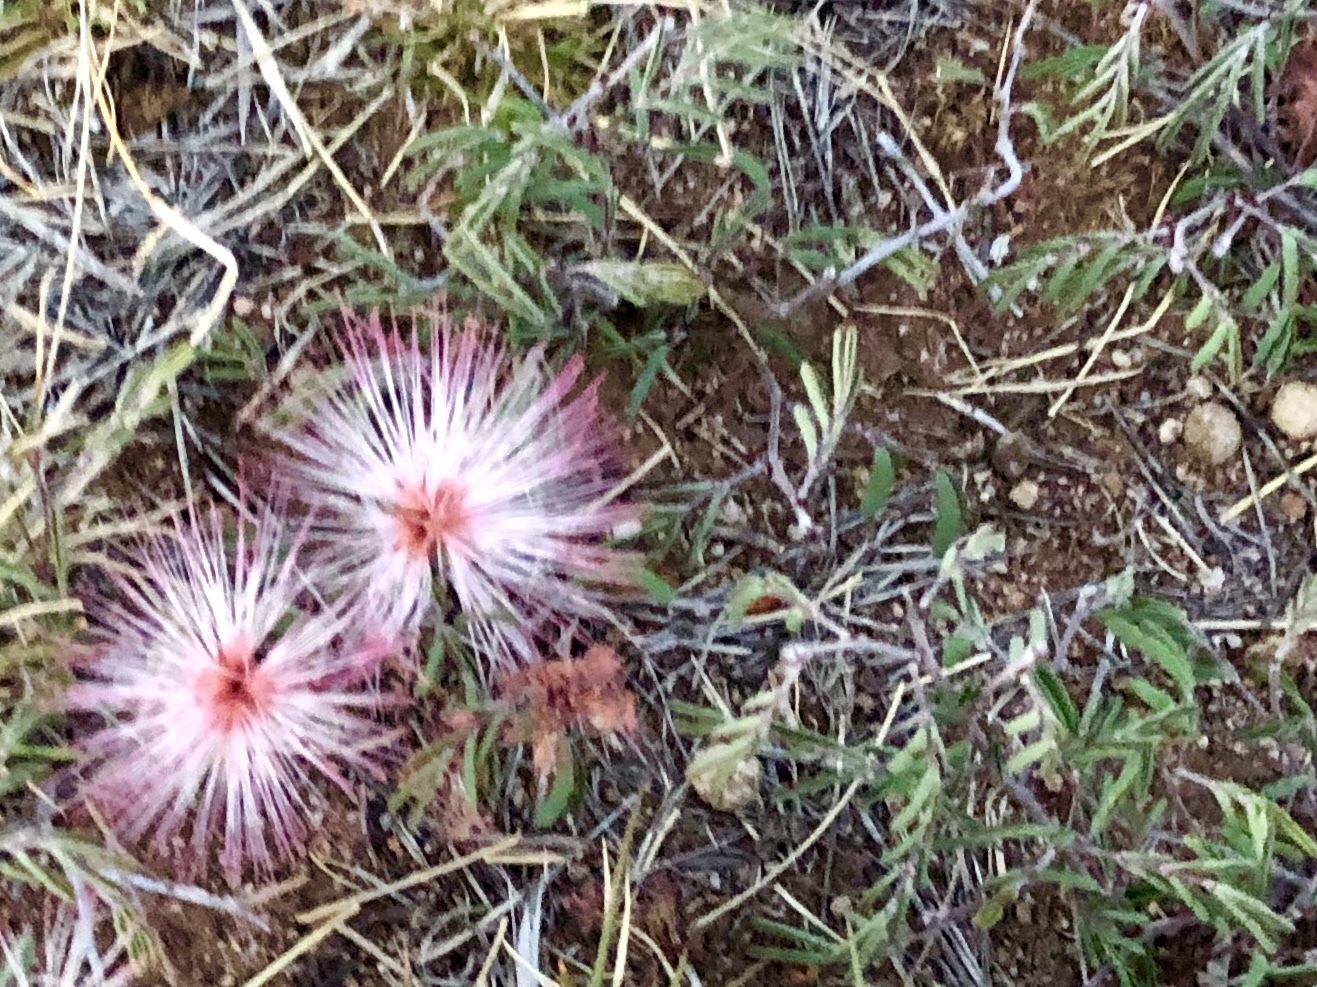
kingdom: Plantae
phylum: Tracheophyta
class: Magnoliopsida
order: Fabales
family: Fabaceae
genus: Calliandra
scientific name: Calliandra eriophylla
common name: Fairy-duster
